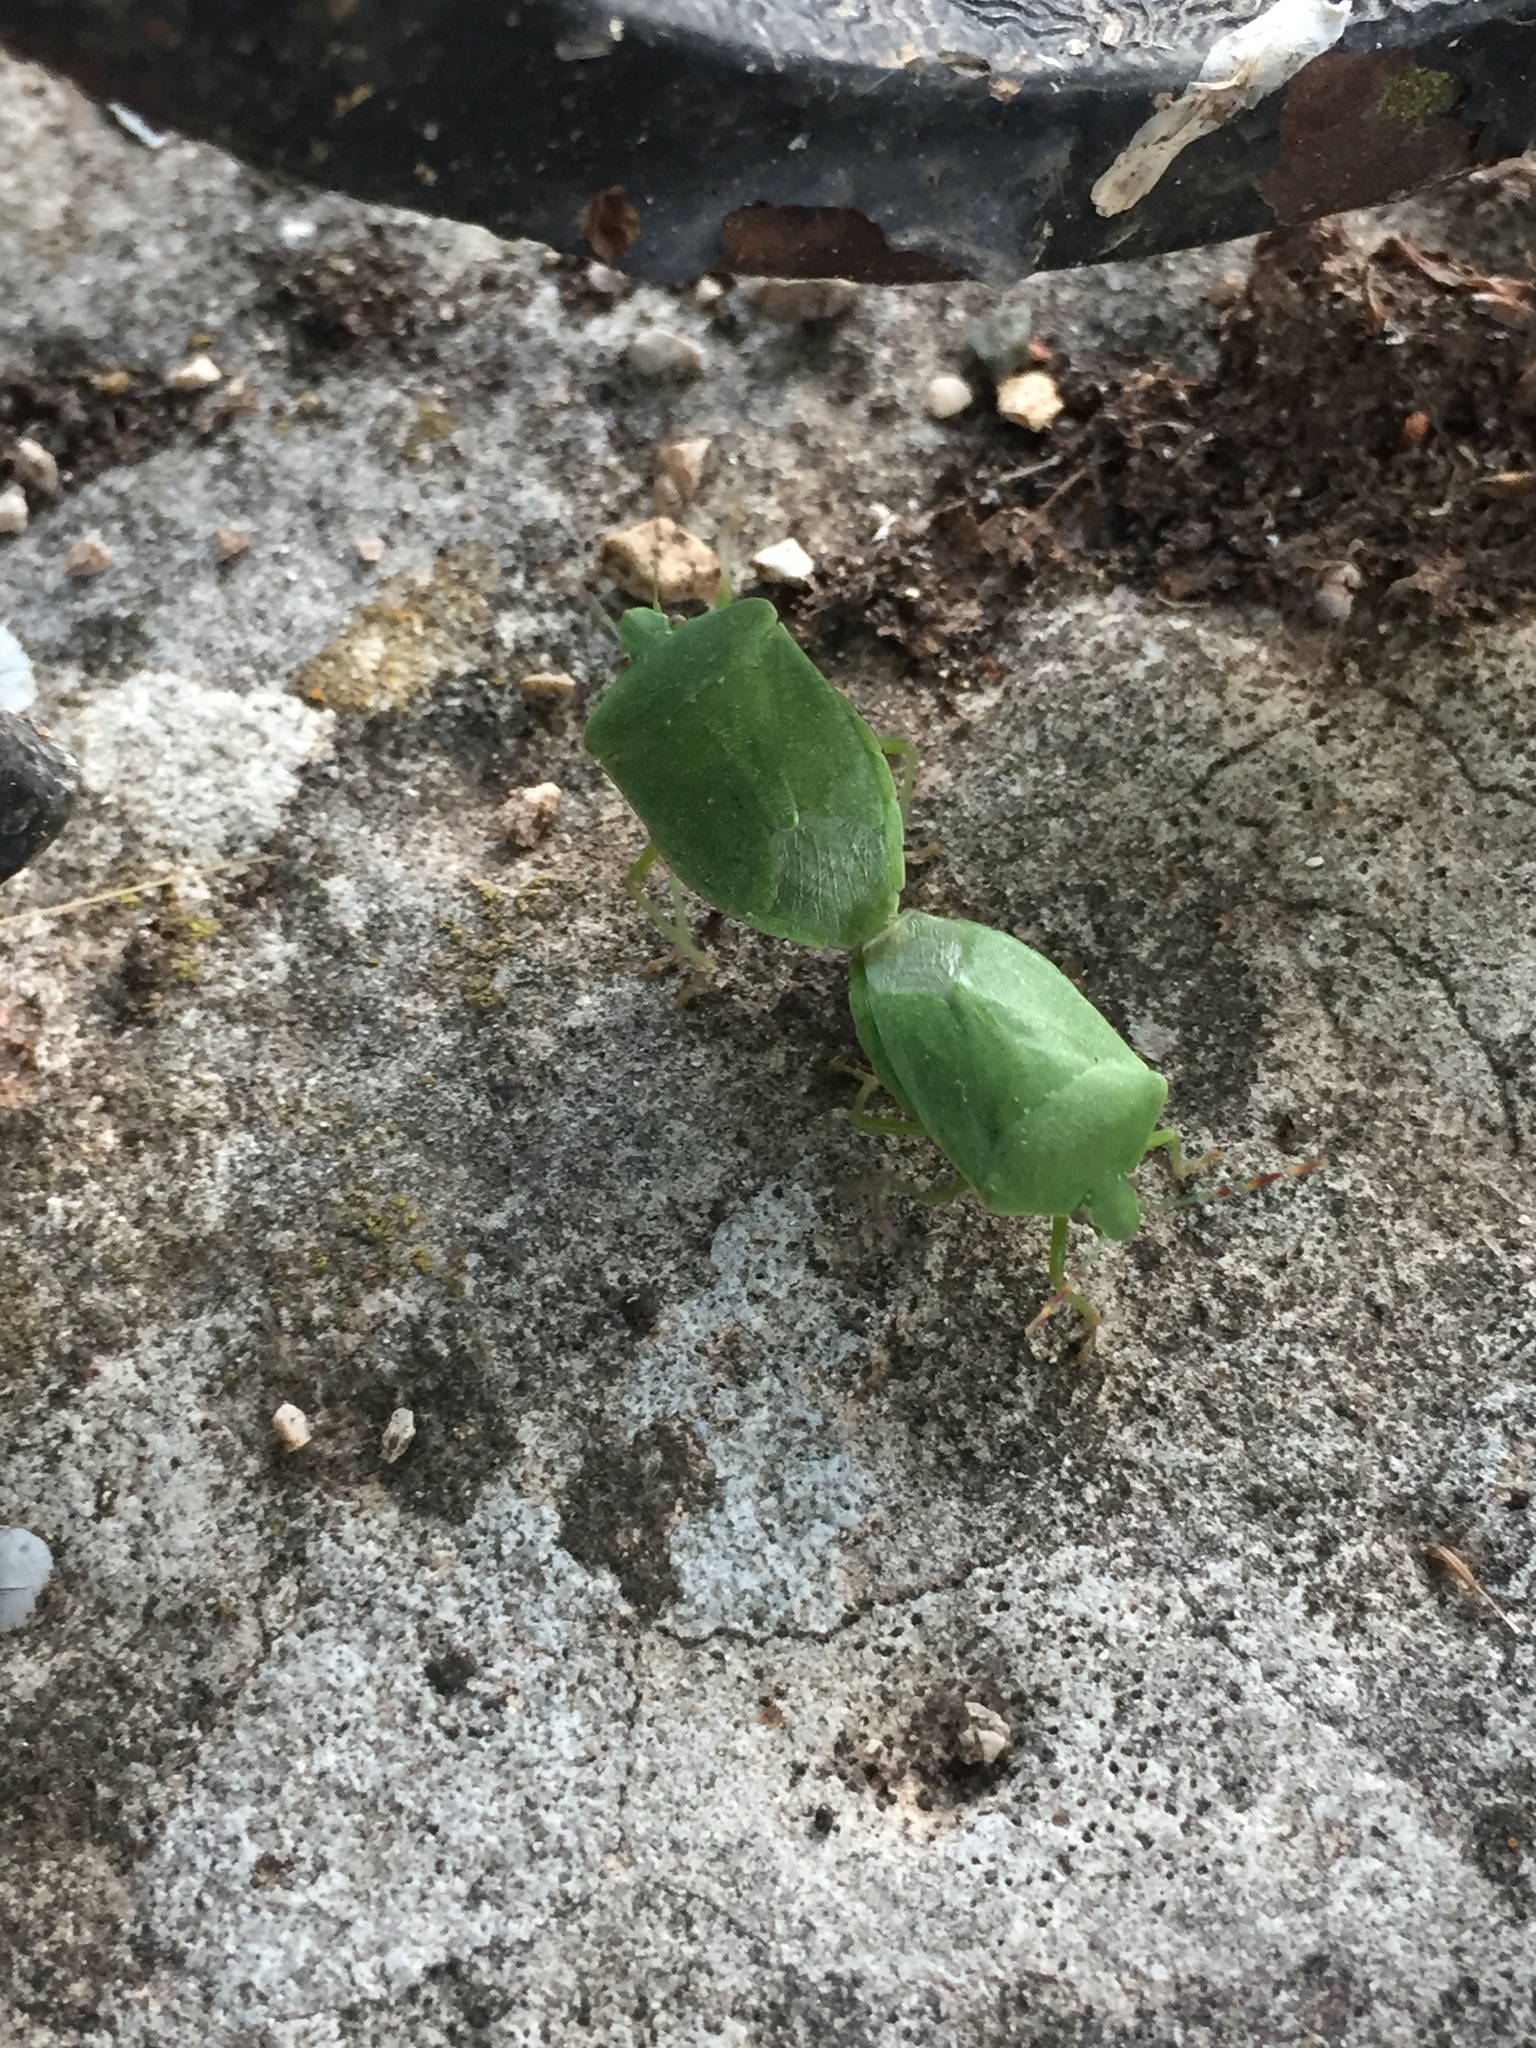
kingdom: Animalia
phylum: Arthropoda
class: Insecta
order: Hemiptera
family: Pentatomidae
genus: Nezara
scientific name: Nezara viridula
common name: Southern green stink bug
